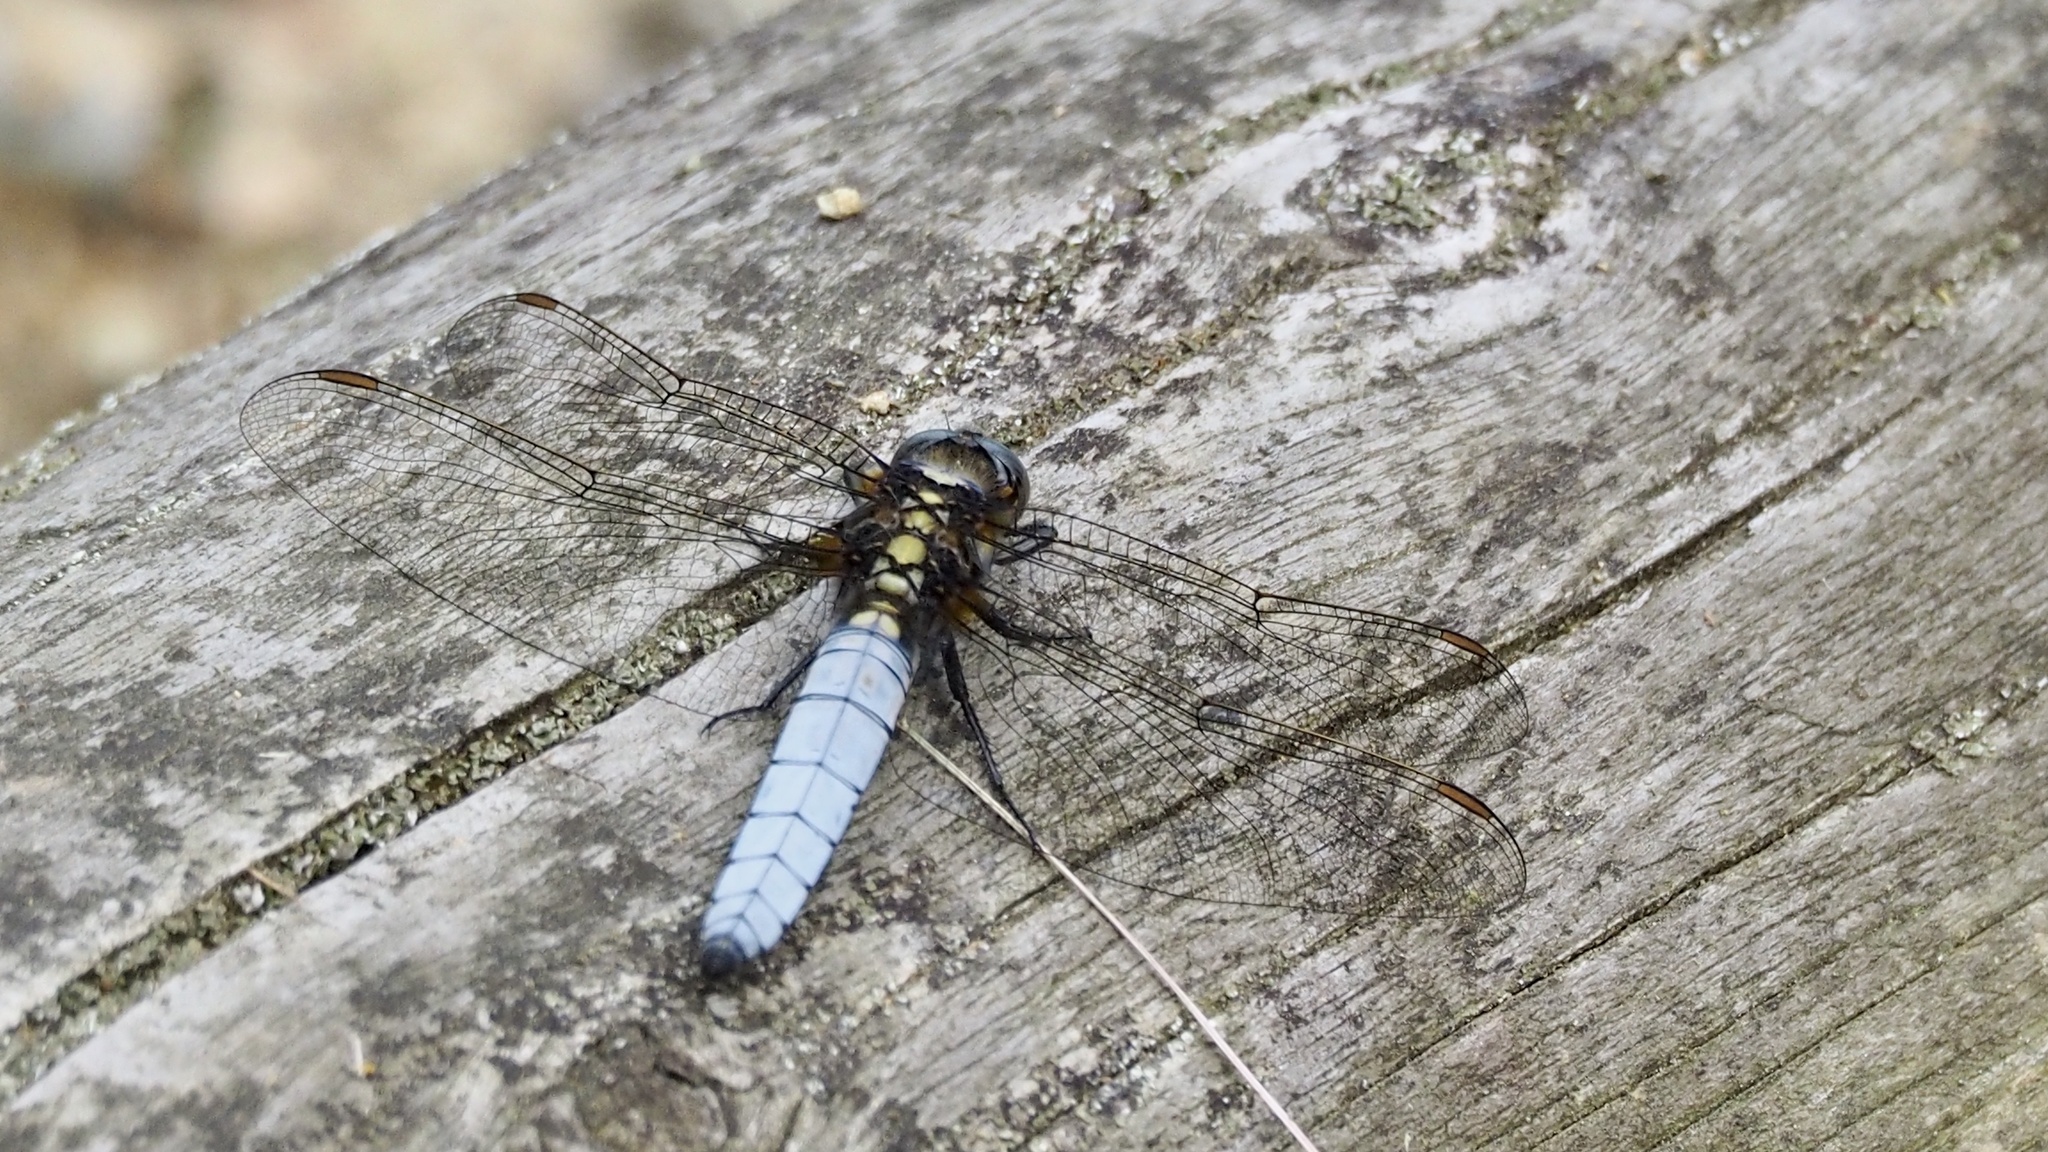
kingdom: Animalia
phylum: Arthropoda
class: Insecta
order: Odonata
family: Libellulidae
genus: Orthetrum
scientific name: Orthetrum japonicum
